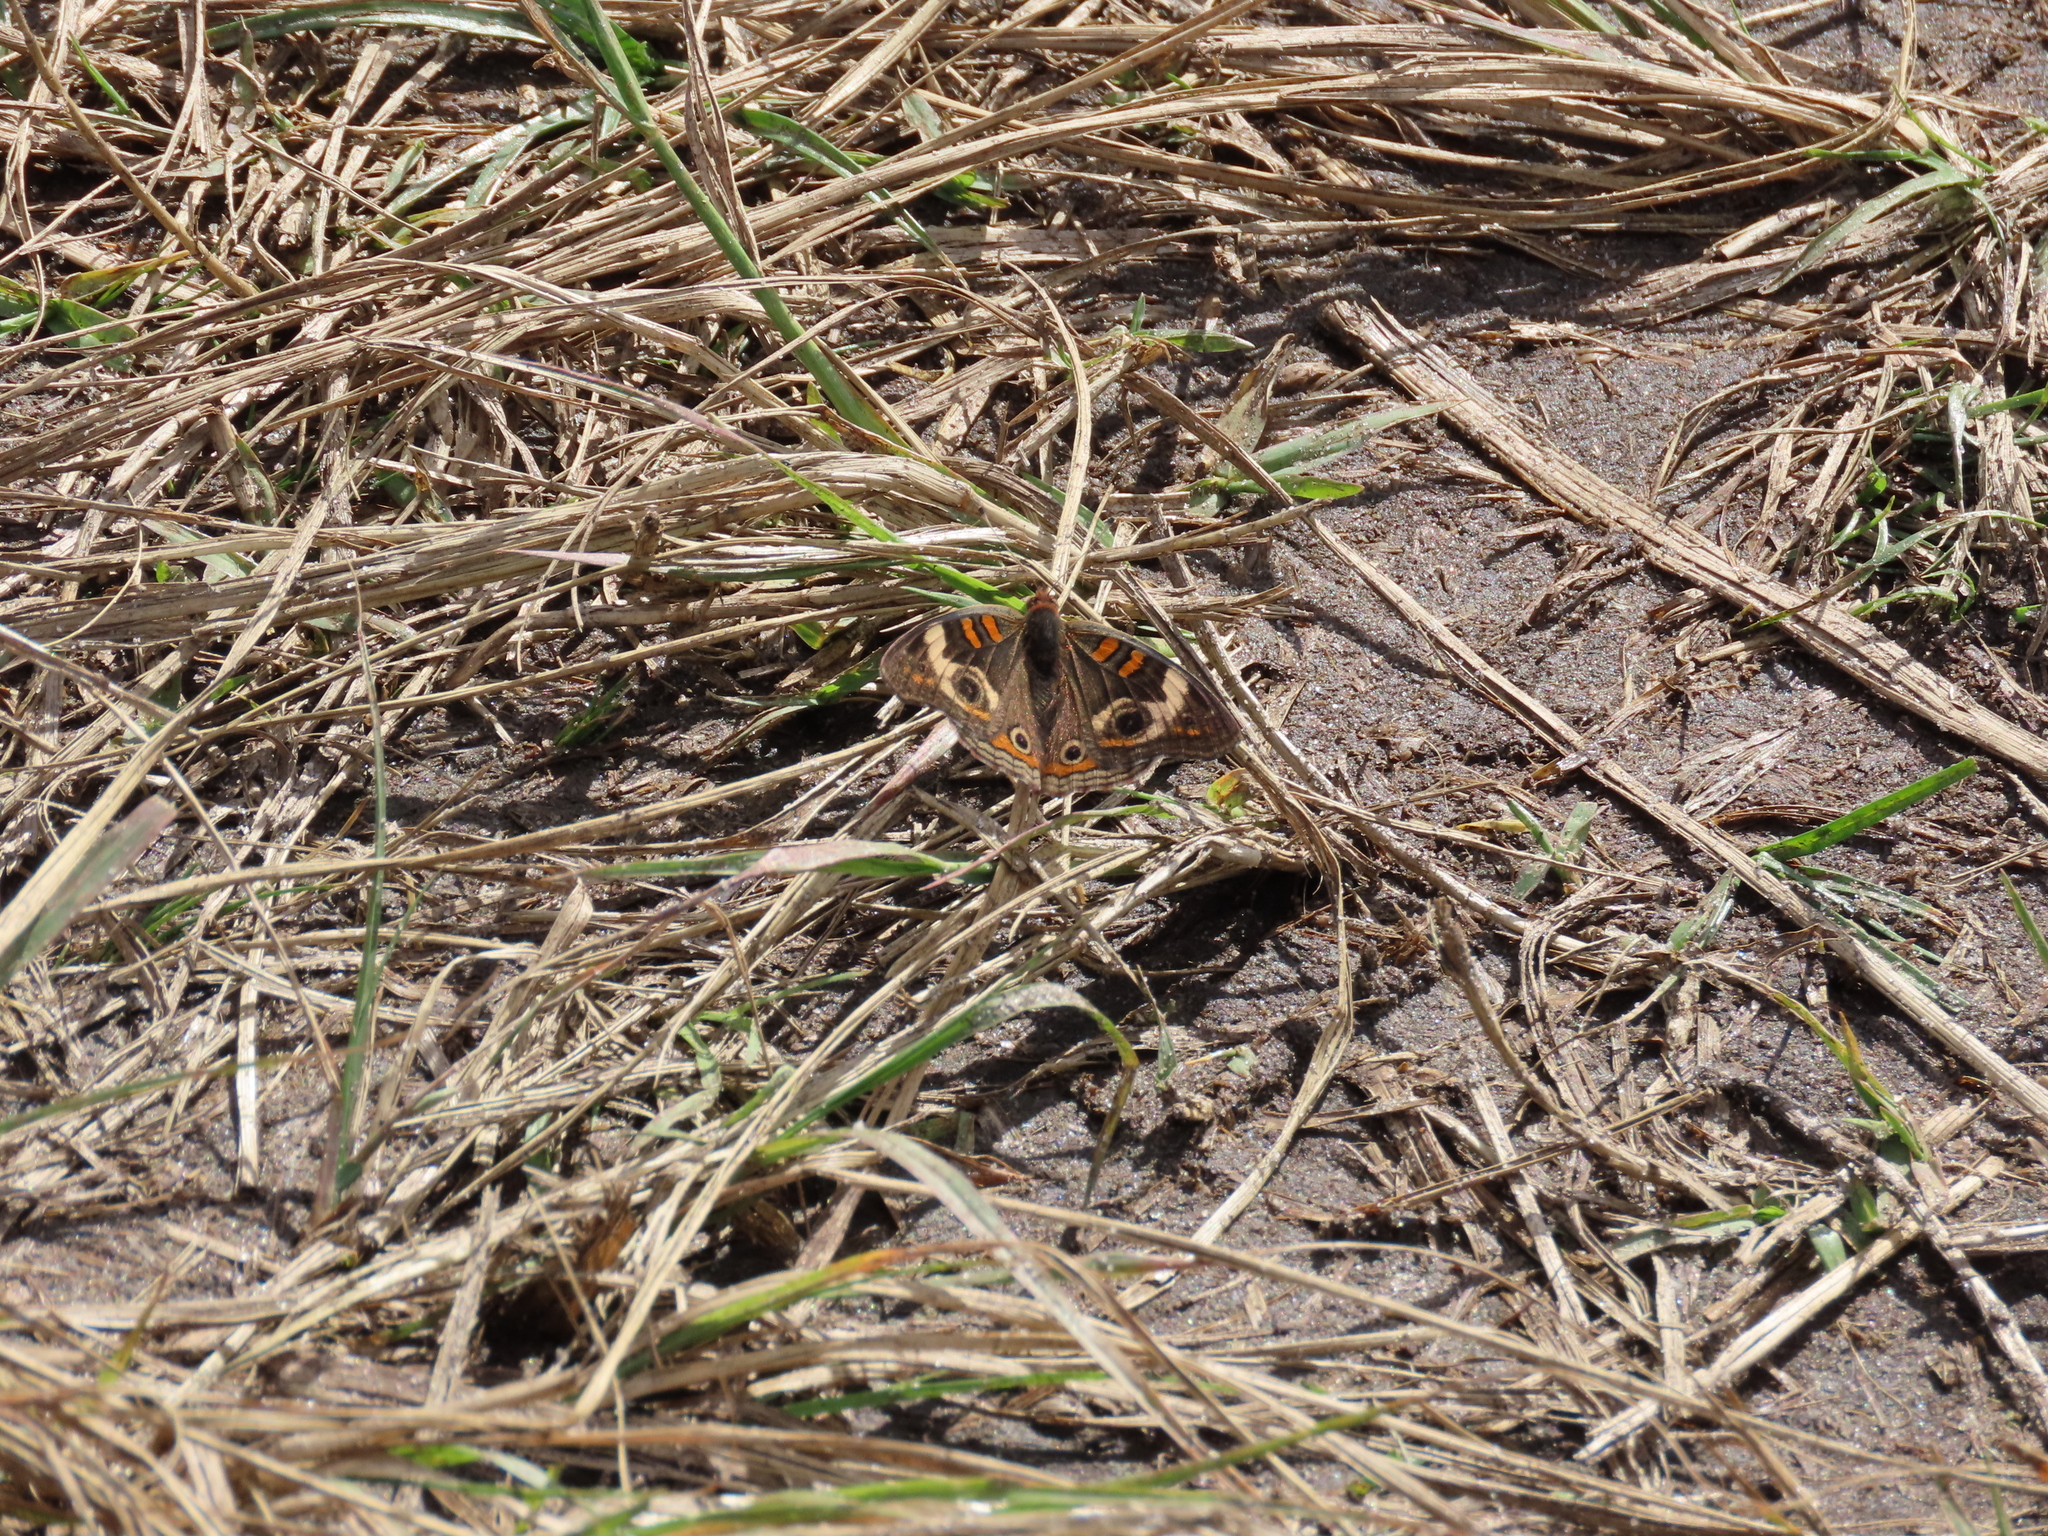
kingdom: Animalia
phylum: Arthropoda
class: Insecta
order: Lepidoptera
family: Nymphalidae
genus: Junonia
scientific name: Junonia coenia
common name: Common buckeye
